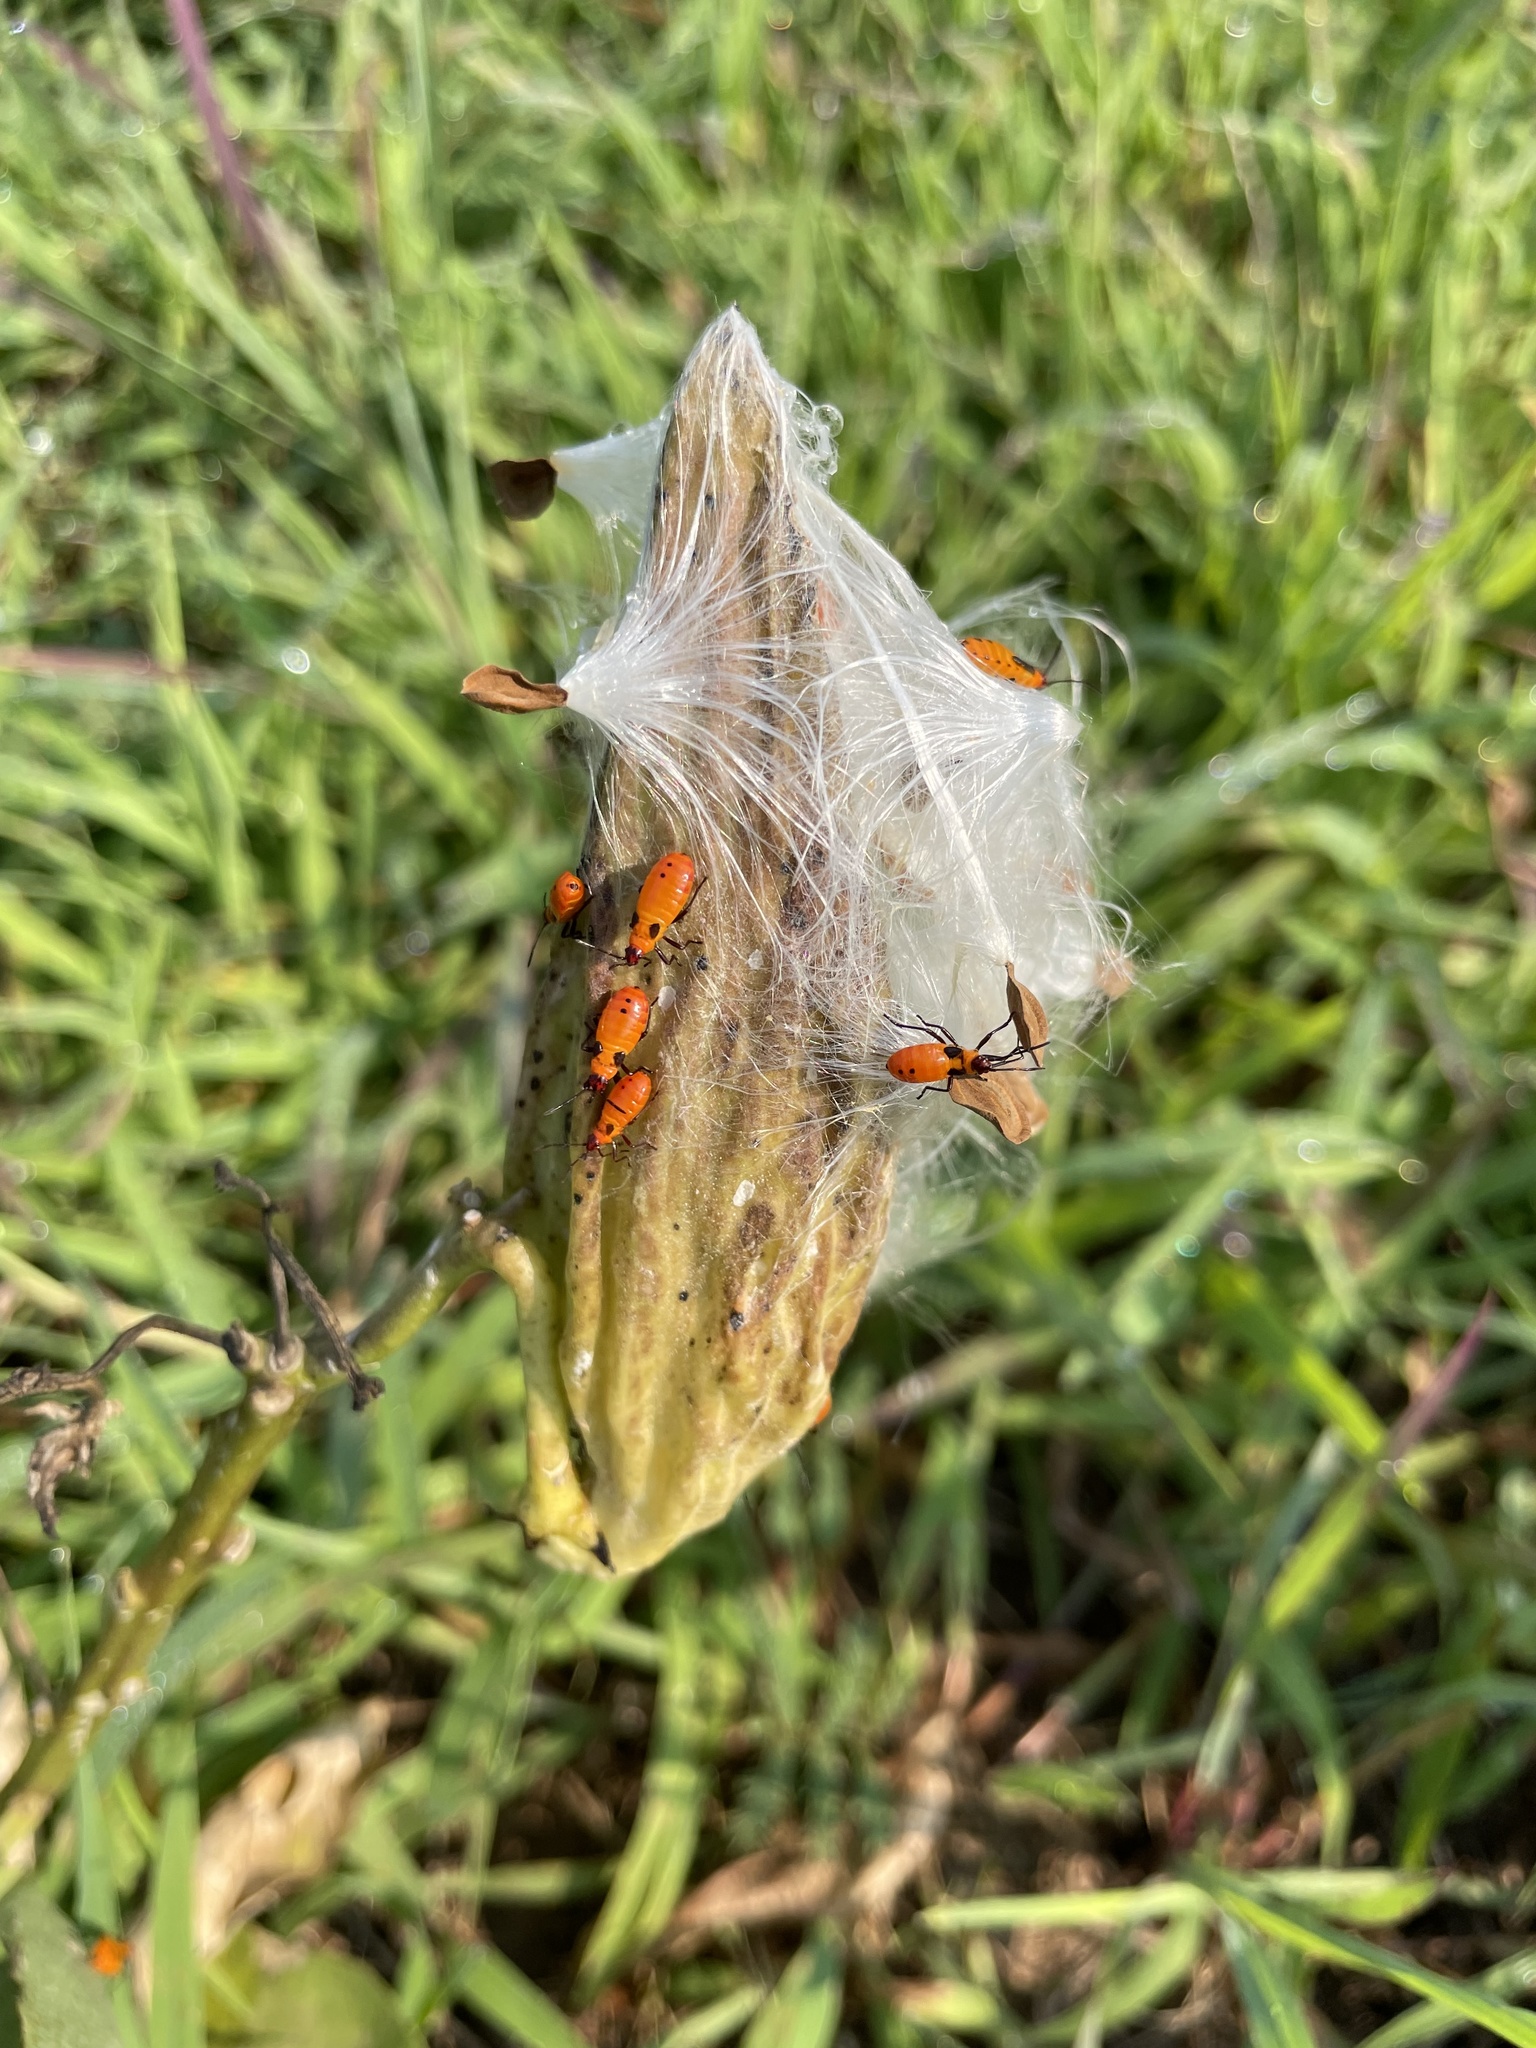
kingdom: Animalia
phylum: Arthropoda
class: Insecta
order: Hemiptera
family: Lygaeidae
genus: Oncopeltus
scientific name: Oncopeltus fasciatus
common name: Large milkweed bug
